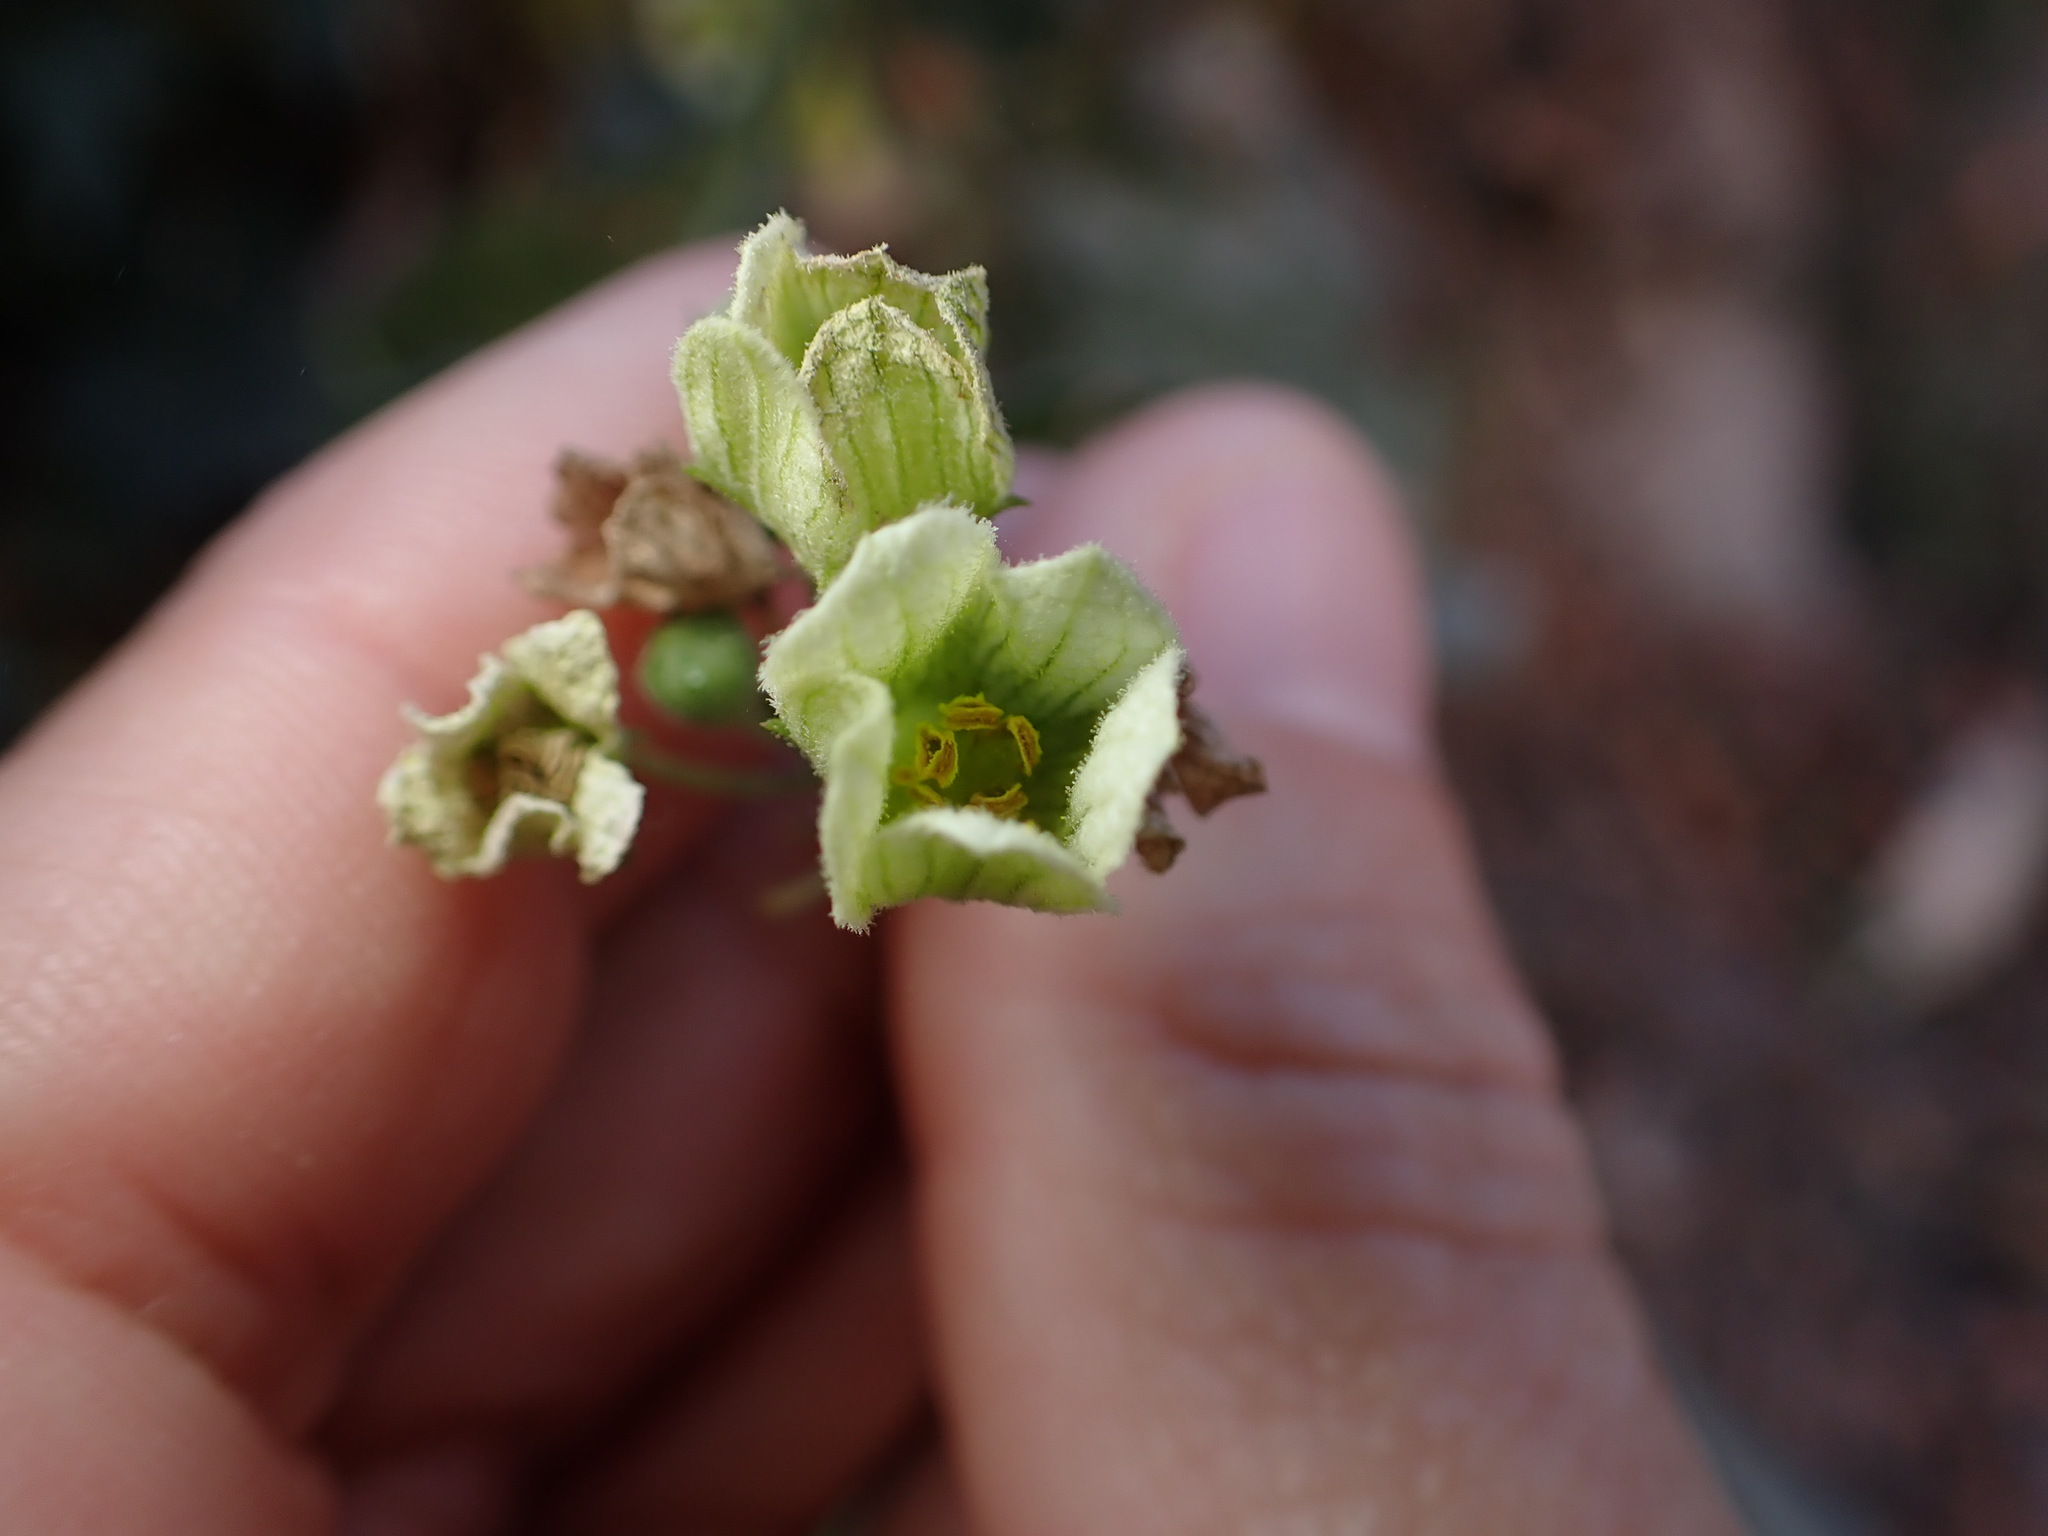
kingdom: Plantae
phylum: Tracheophyta
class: Magnoliopsida
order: Cucurbitales
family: Cucurbitaceae
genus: Bryonia
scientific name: Bryonia cretica
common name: Cretan bryony
